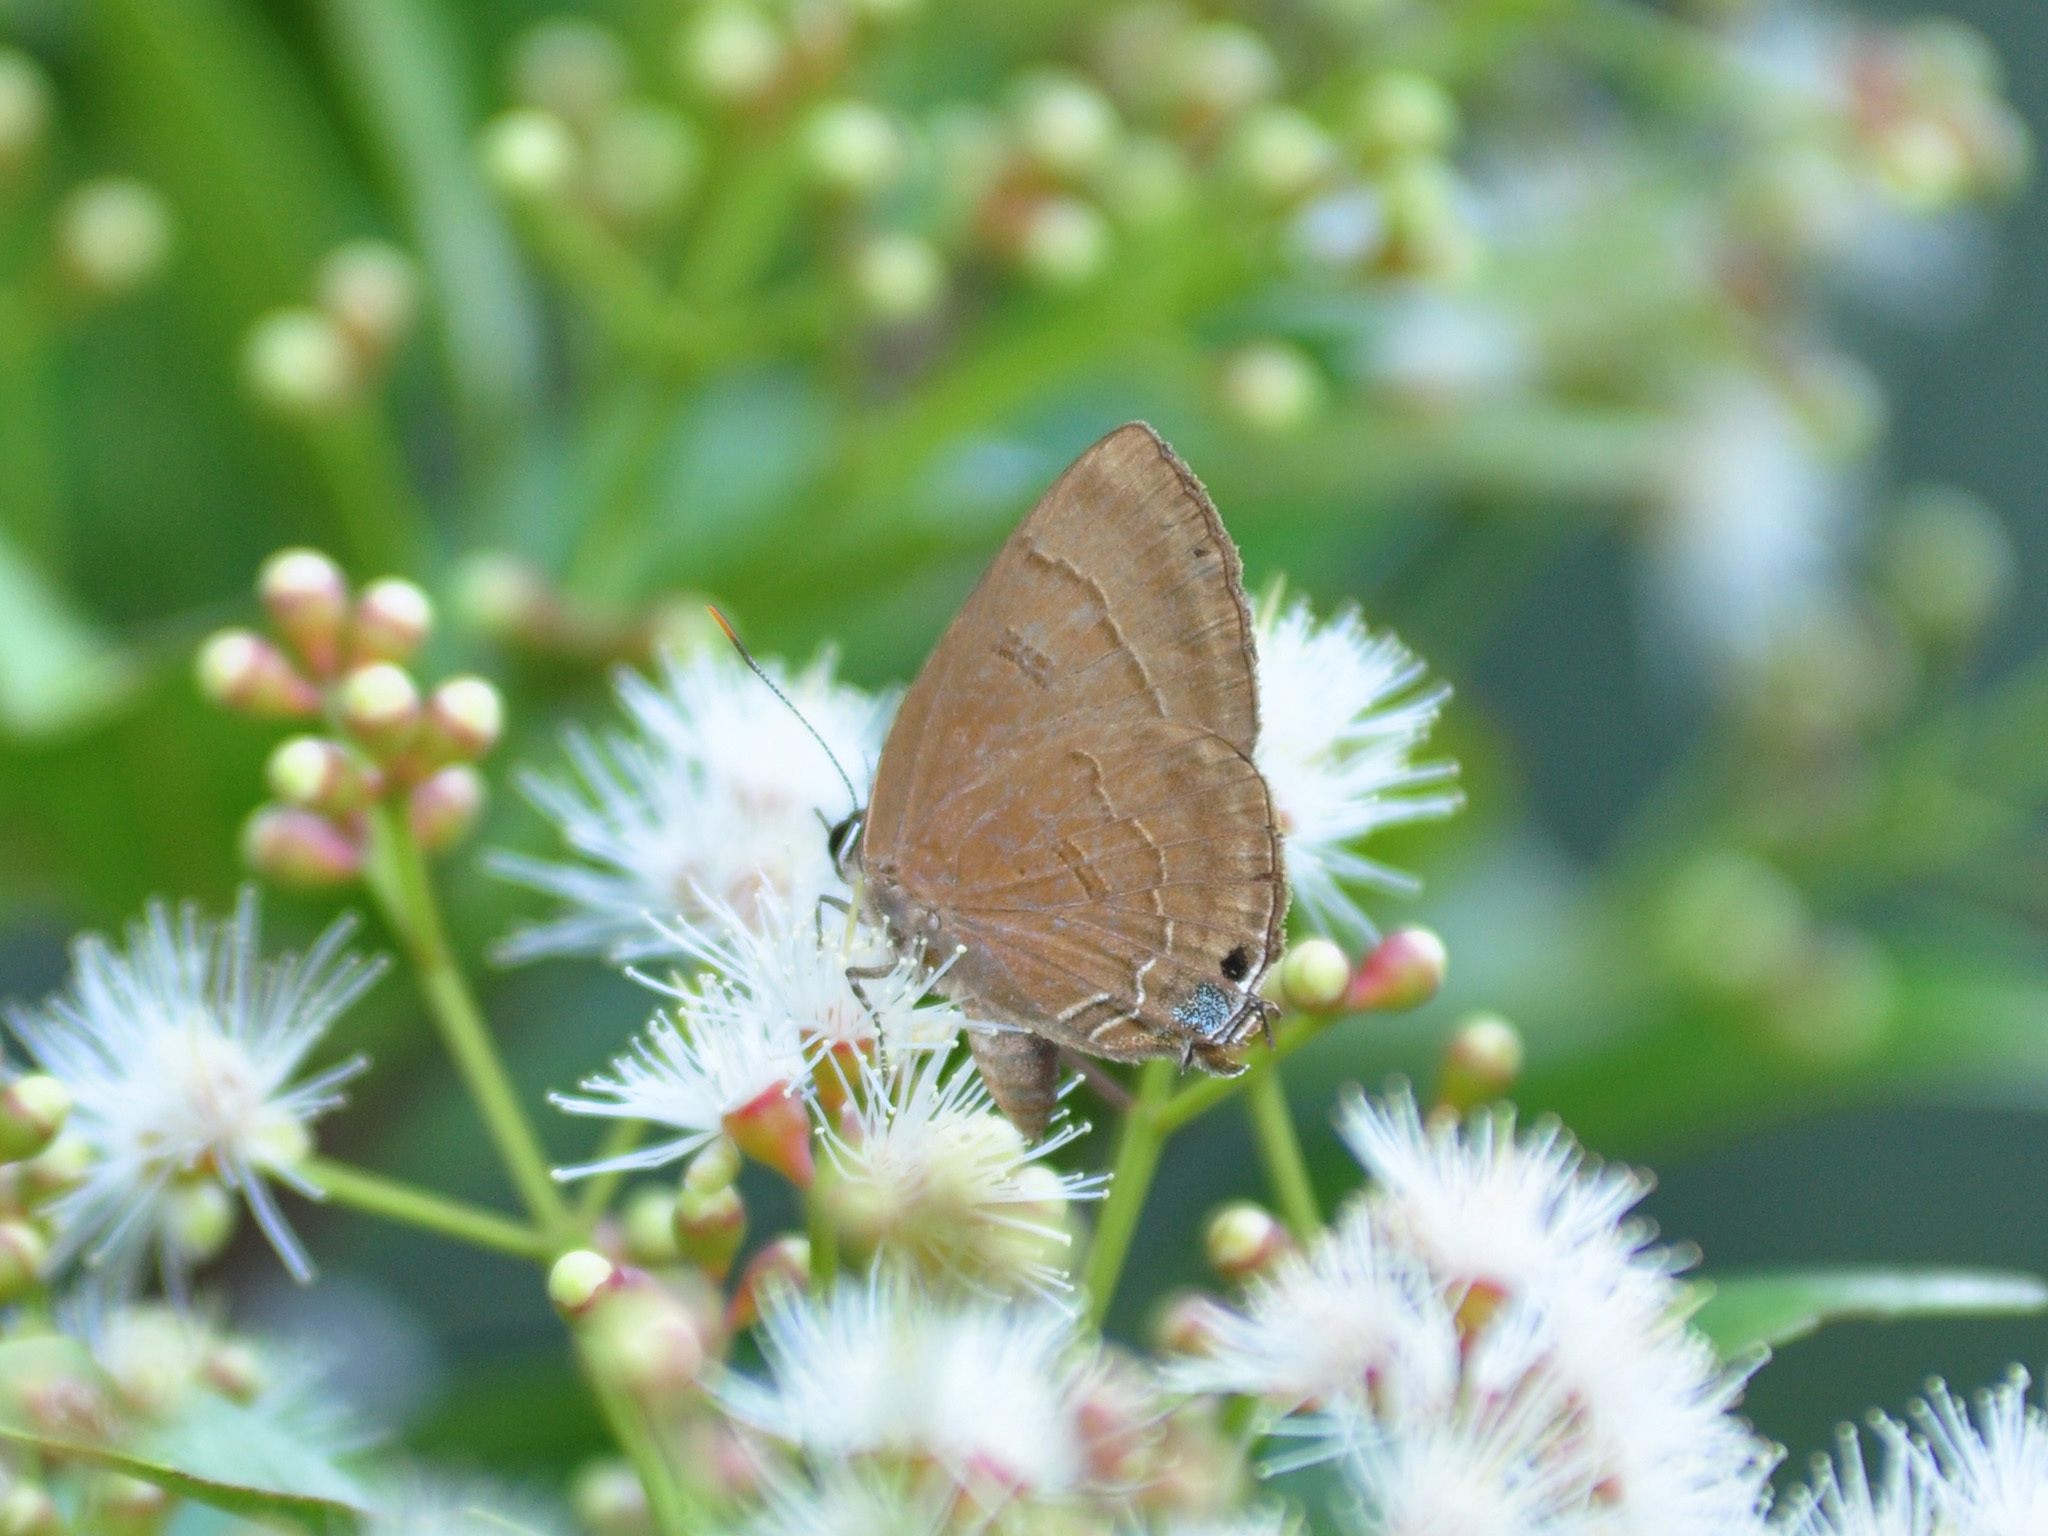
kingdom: Animalia
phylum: Arthropoda
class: Insecta
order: Lepidoptera
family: Lycaenidae
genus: Rapala
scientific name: Rapala pheretima
